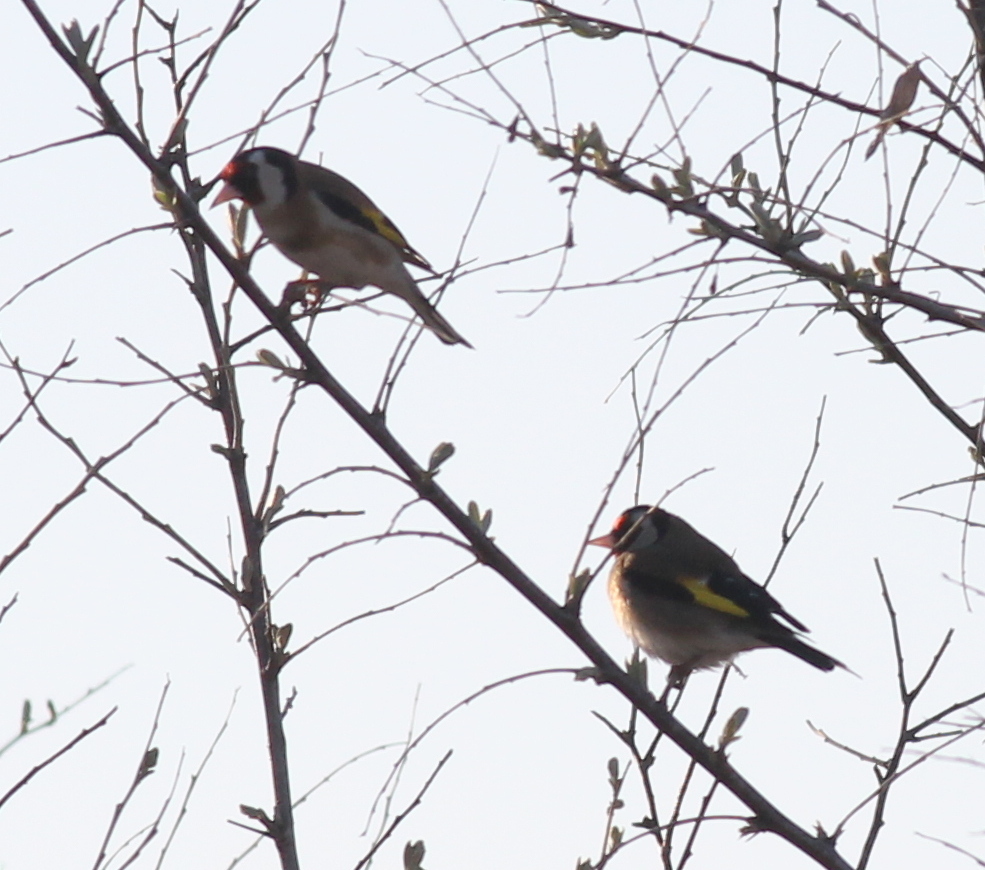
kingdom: Animalia
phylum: Chordata
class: Aves
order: Passeriformes
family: Fringillidae
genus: Carduelis
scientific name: Carduelis carduelis
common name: European goldfinch
